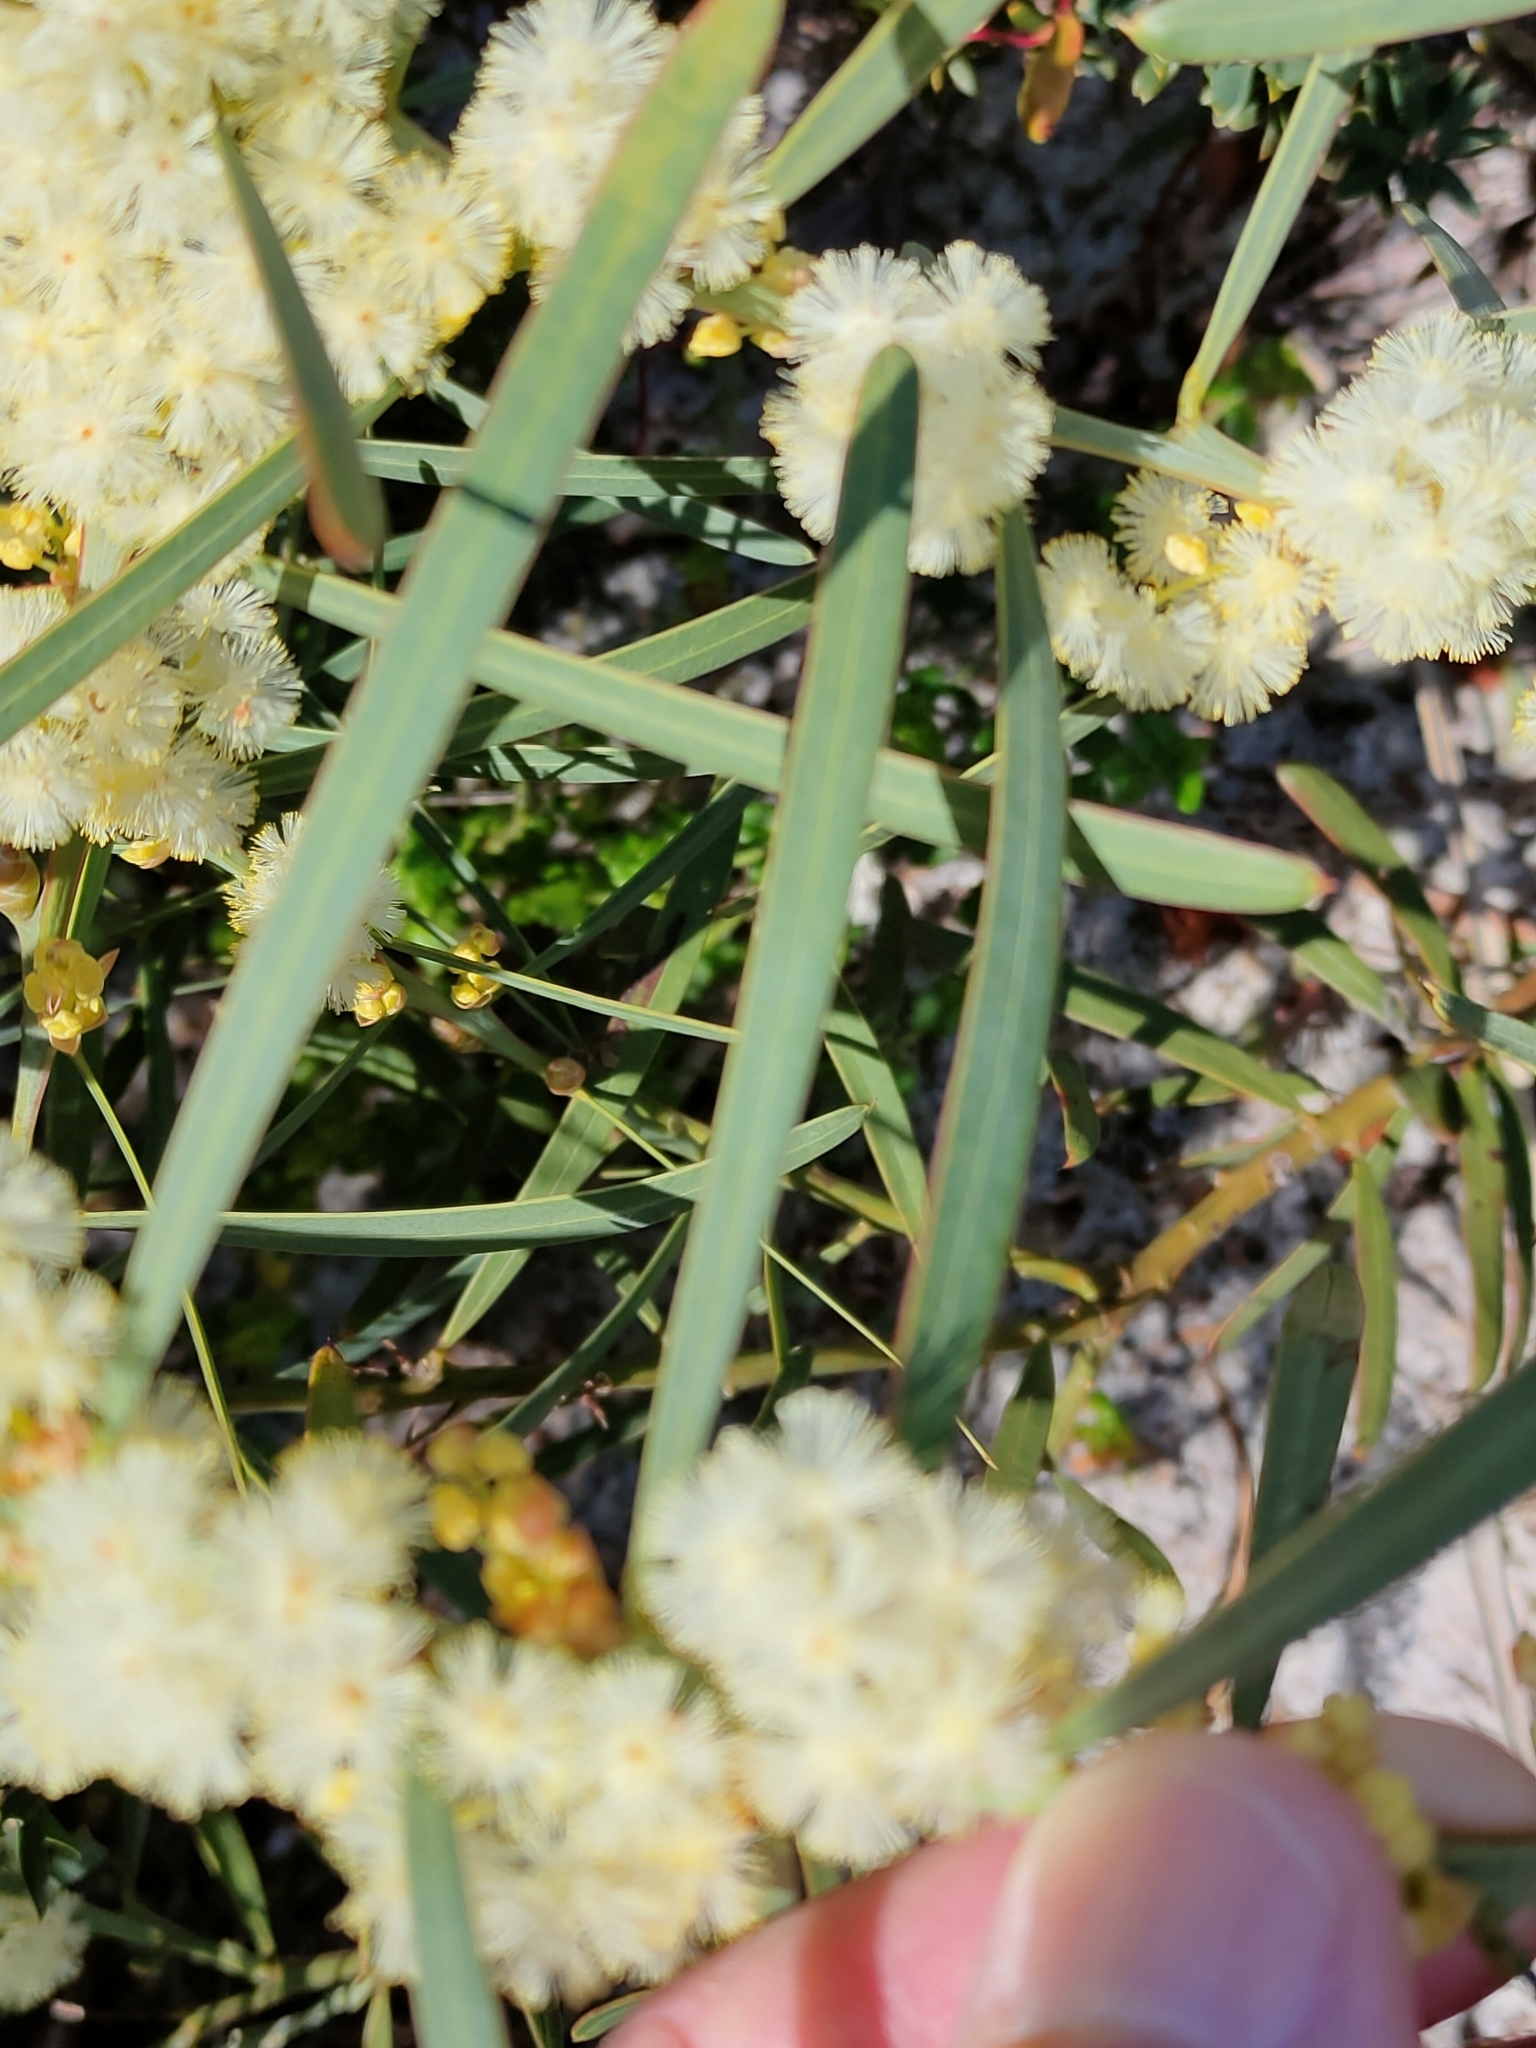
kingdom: Plantae
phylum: Tracheophyta
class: Magnoliopsida
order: Fabales
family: Fabaceae
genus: Acacia
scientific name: Acacia suaveolens
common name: Sweet acacia
